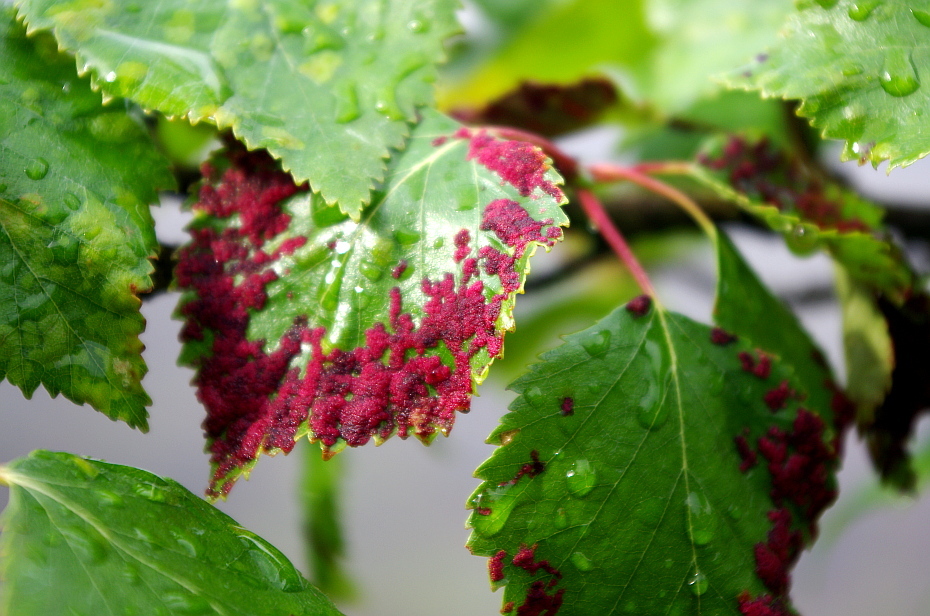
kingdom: Plantae
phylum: Tracheophyta
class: Magnoliopsida
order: Fagales
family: Betulaceae
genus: Betula
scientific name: Betula pendula
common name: Silver birch
